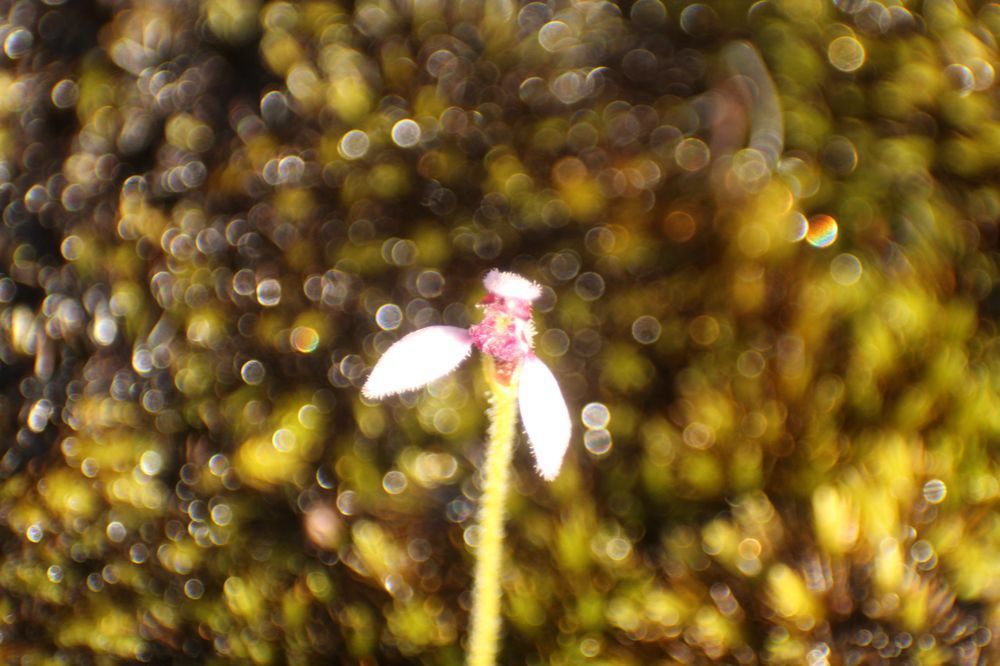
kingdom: Plantae
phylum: Tracheophyta
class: Liliopsida
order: Asparagales
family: Orchidaceae
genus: Eriochilus
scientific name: Eriochilus scaber
